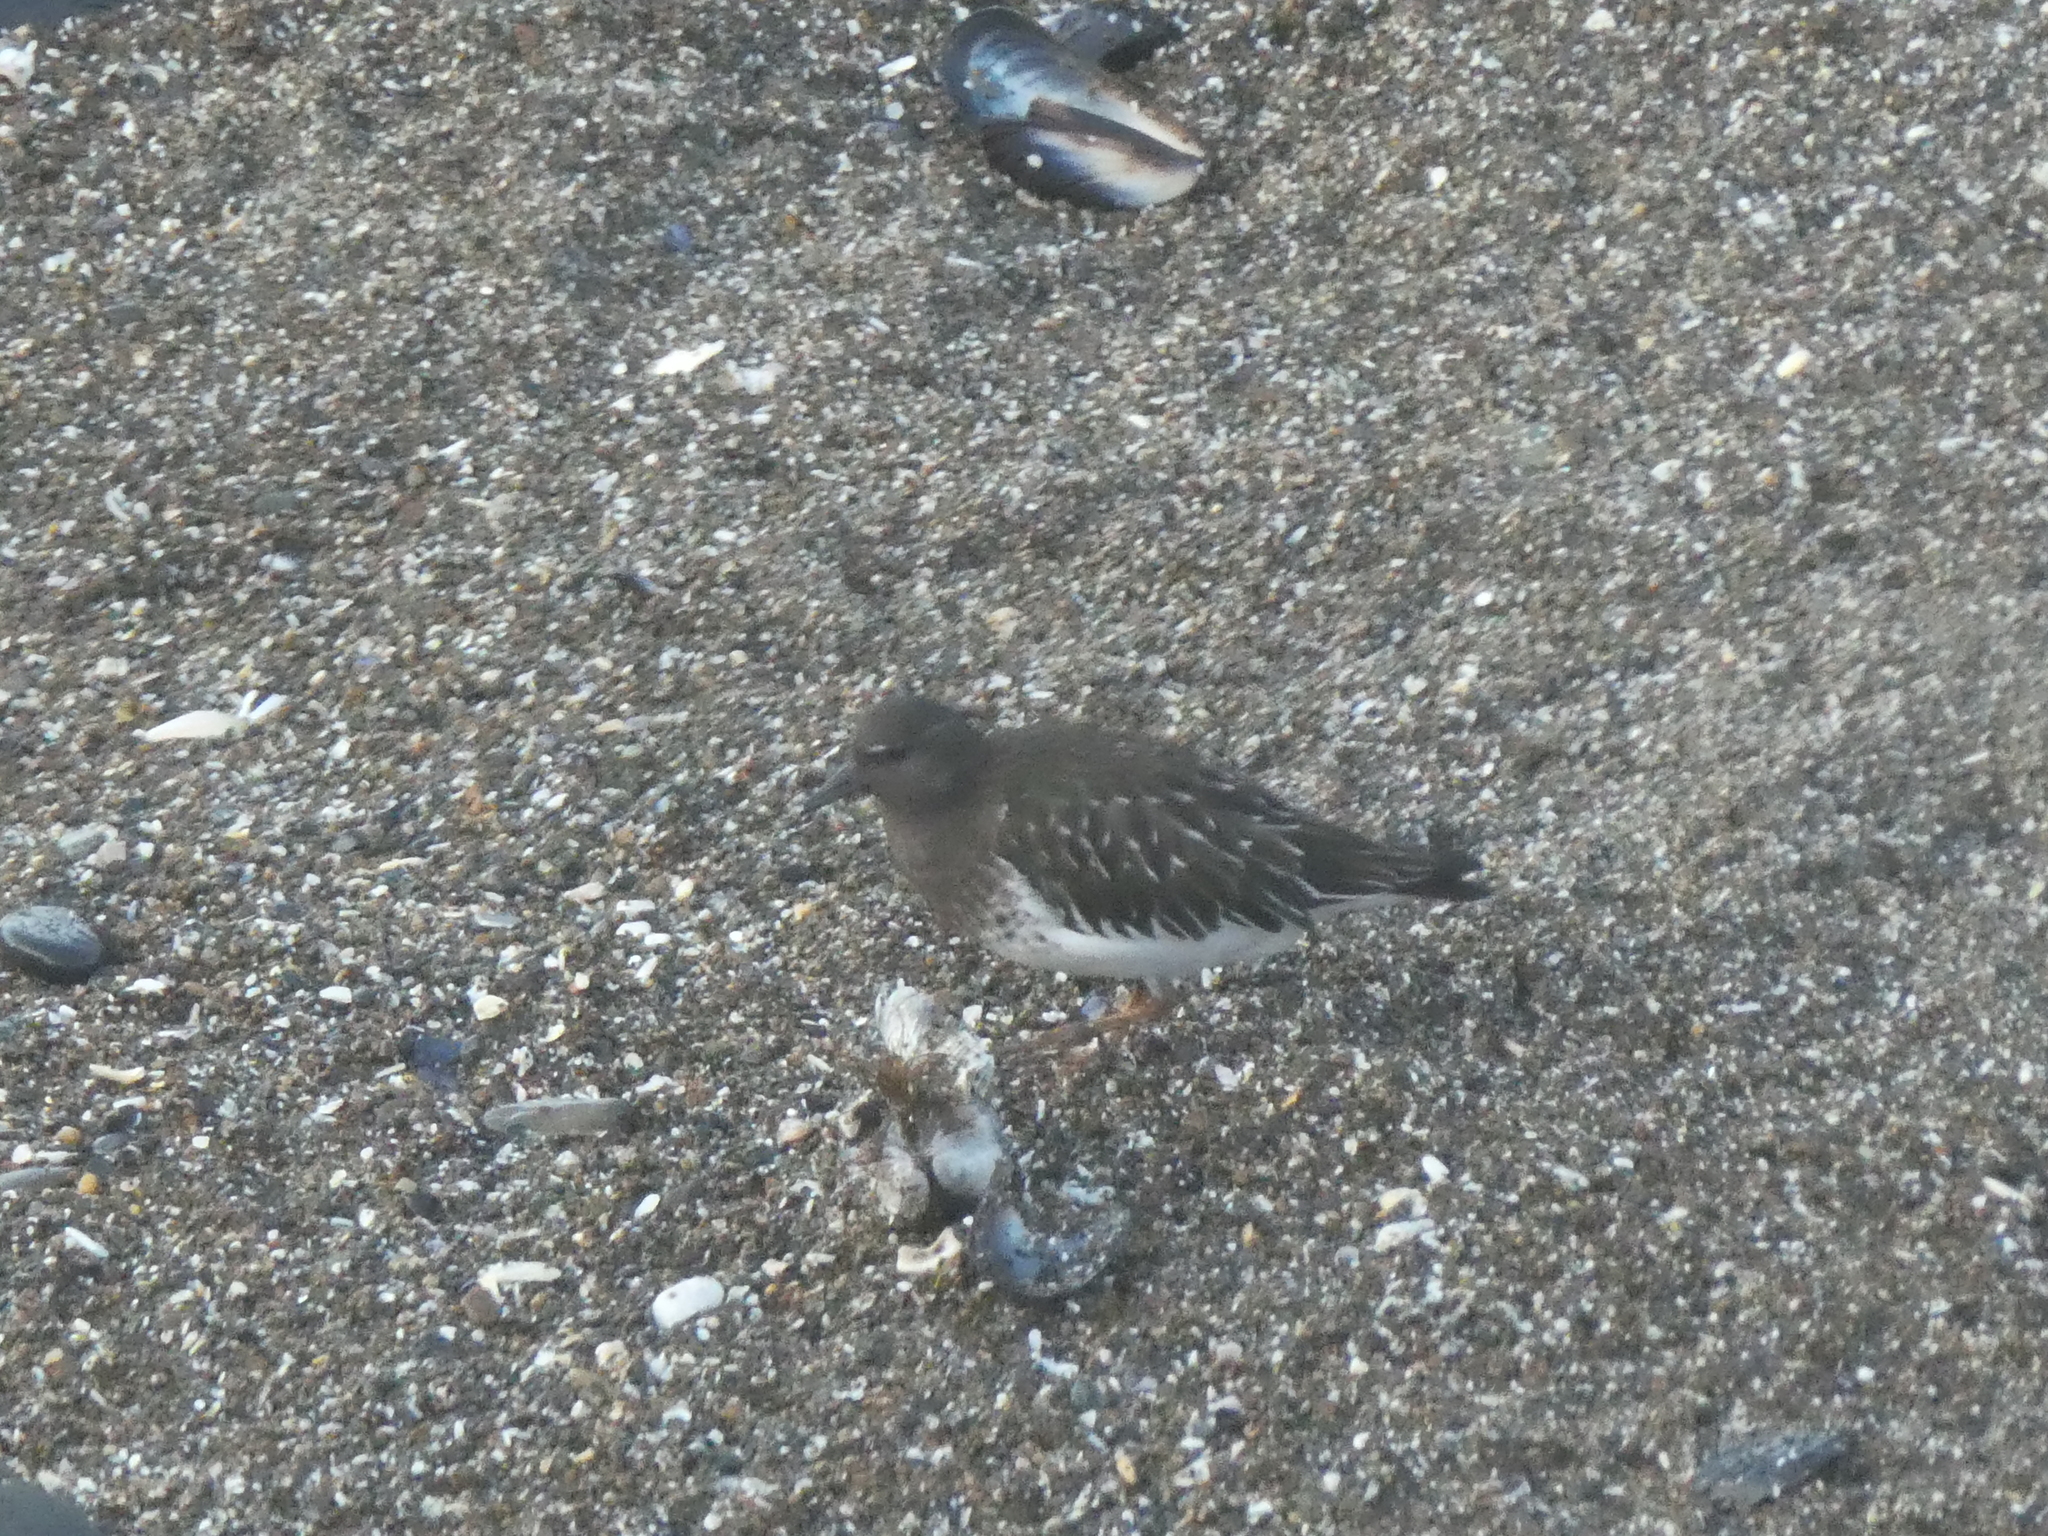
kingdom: Animalia
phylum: Chordata
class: Aves
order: Charadriiformes
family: Scolopacidae
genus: Arenaria
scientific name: Arenaria melanocephala
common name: Black turnstone
